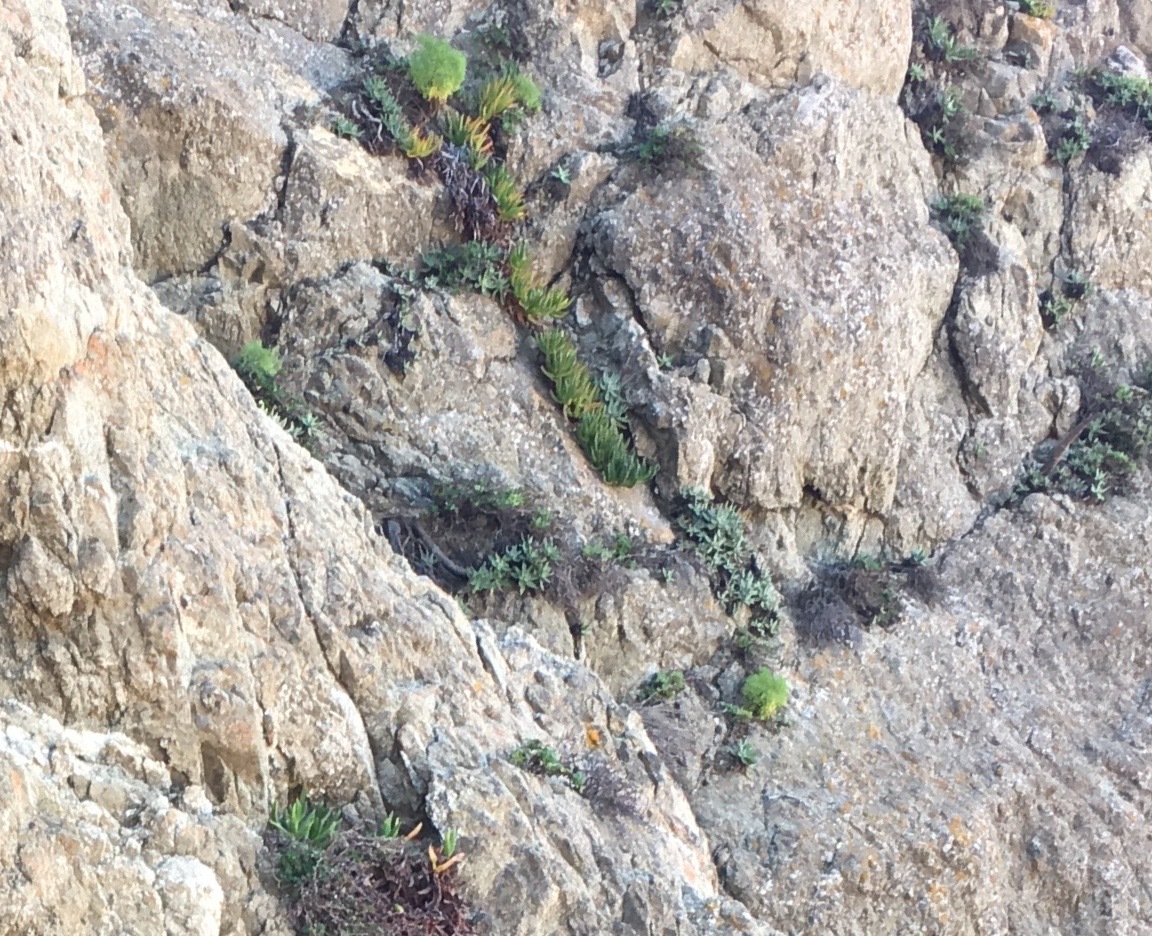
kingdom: Plantae
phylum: Tracheophyta
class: Magnoliopsida
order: Asterales
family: Asteraceae
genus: Coreopsis
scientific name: Coreopsis gigantea
